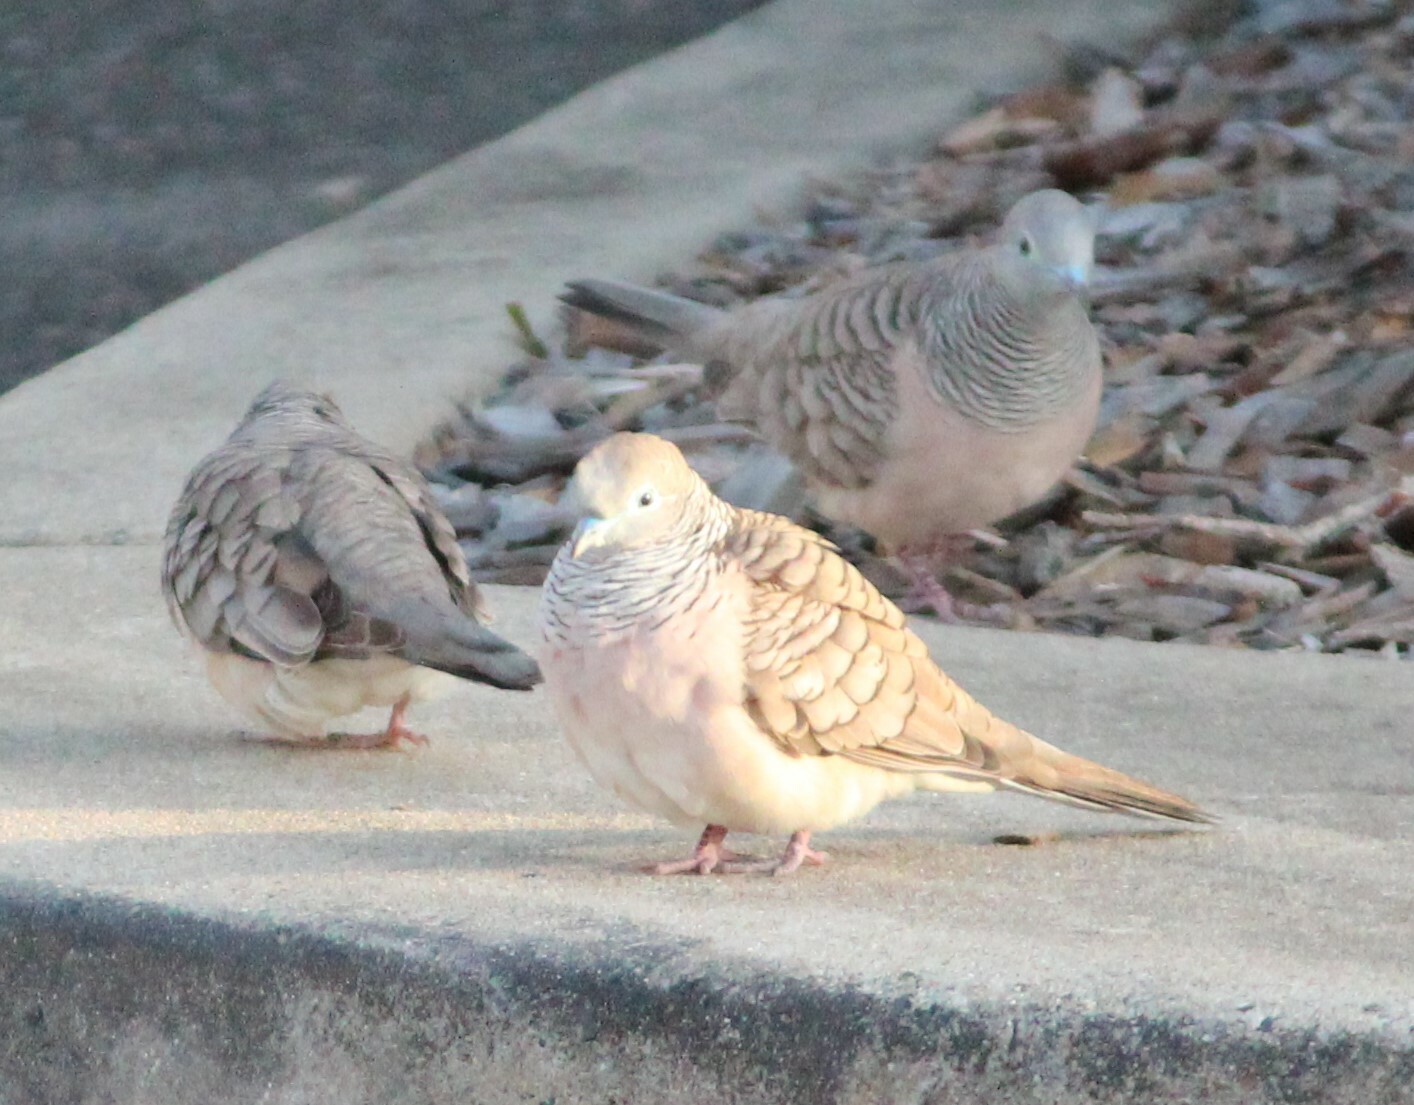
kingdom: Animalia
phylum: Chordata
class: Aves
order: Columbiformes
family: Columbidae
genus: Geopelia
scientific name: Geopelia placida
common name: Peaceful dove
